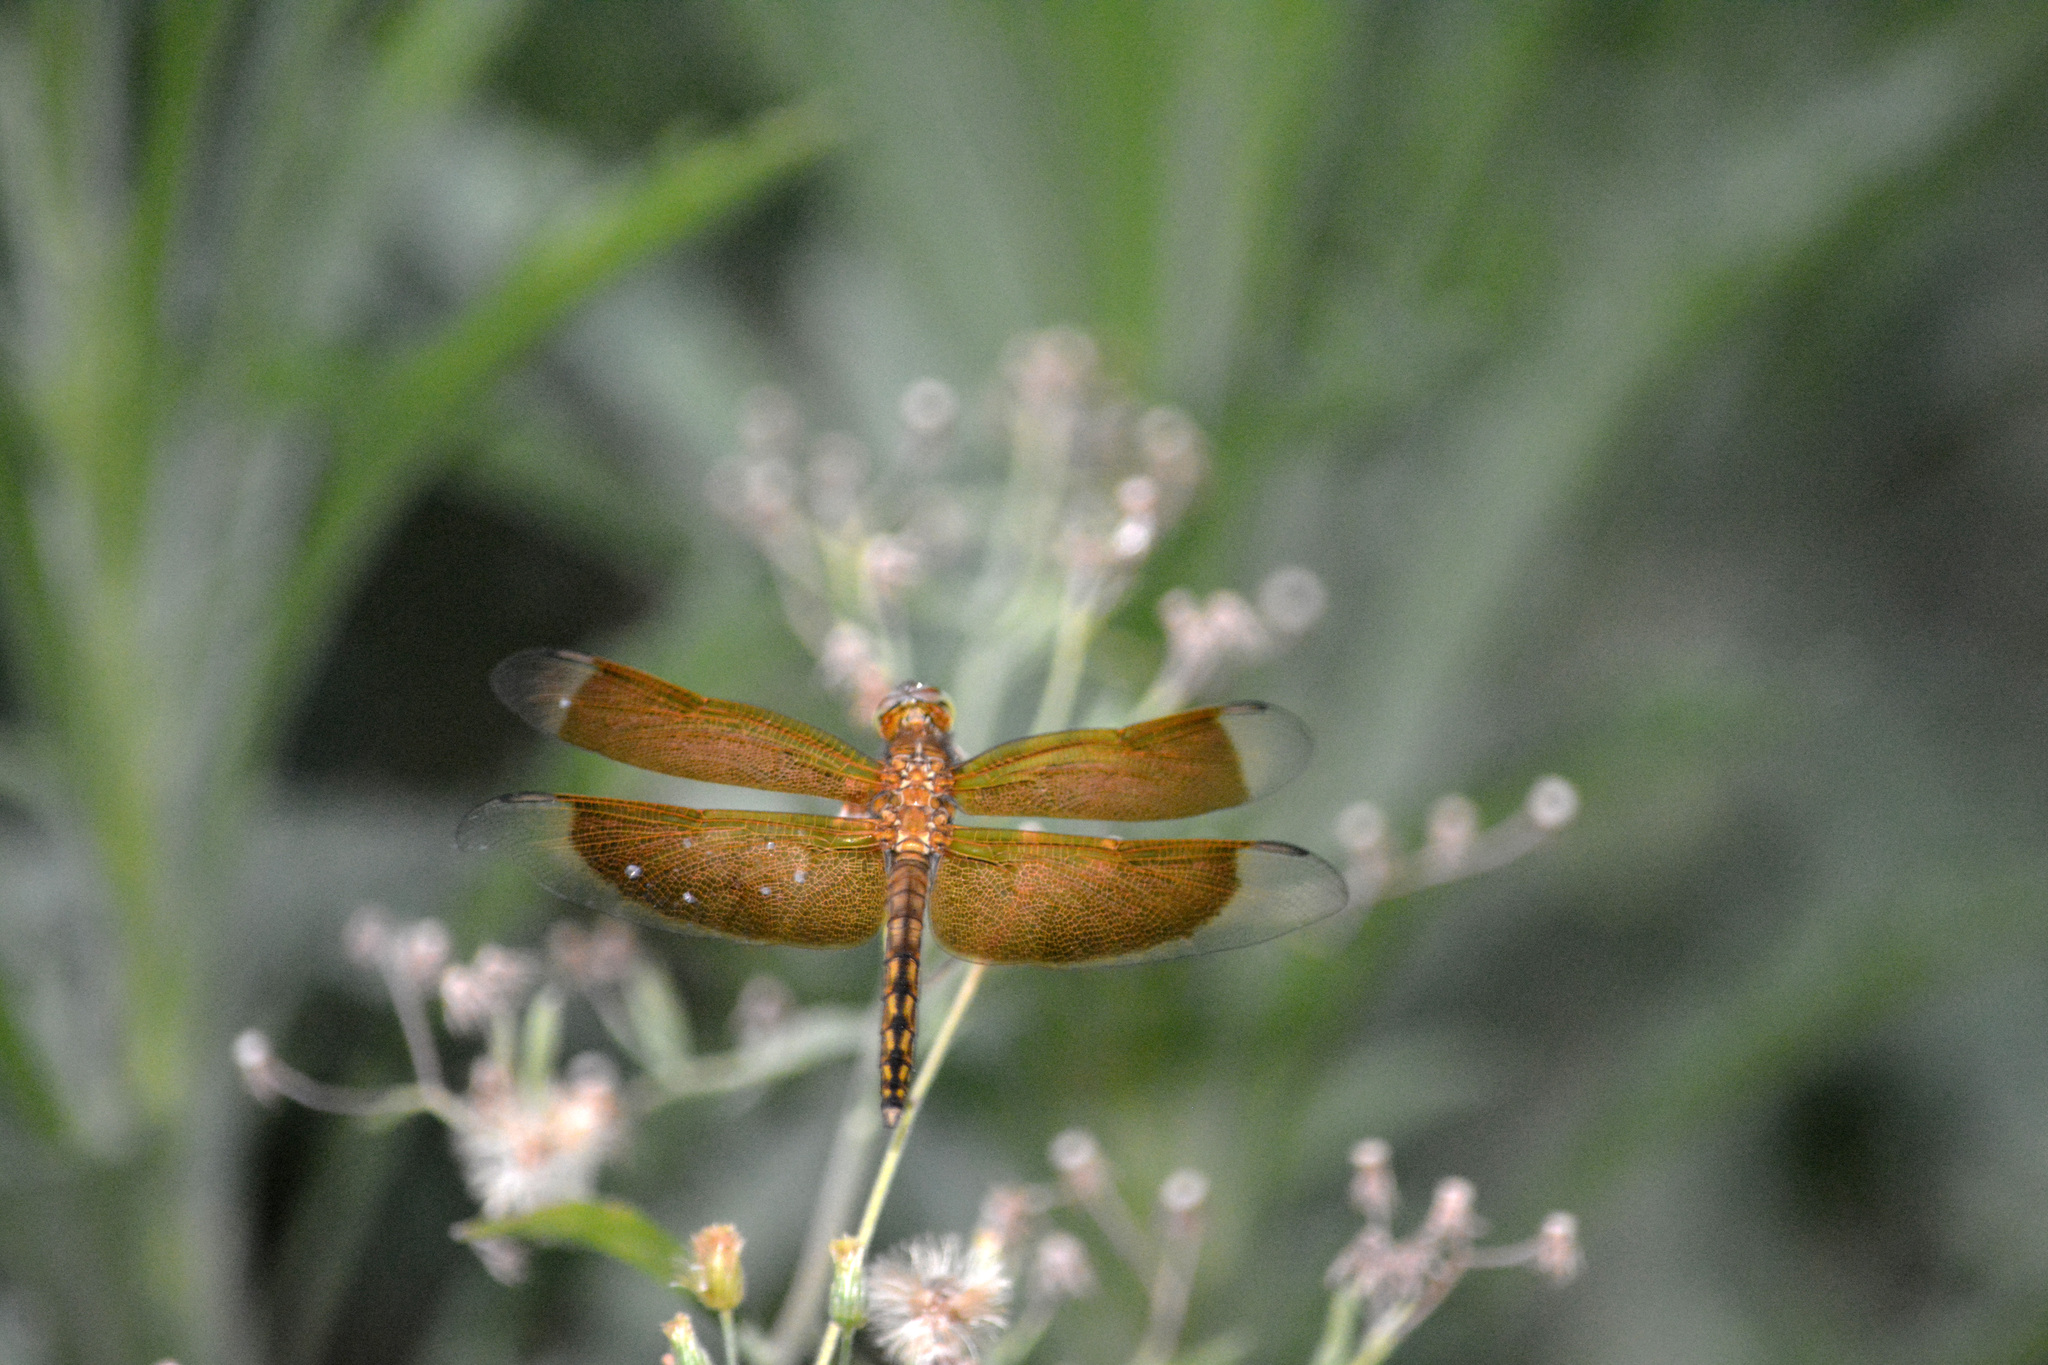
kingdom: Animalia
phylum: Arthropoda
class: Insecta
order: Odonata
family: Libellulidae
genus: Neurothemis
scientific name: Neurothemis ramburii
